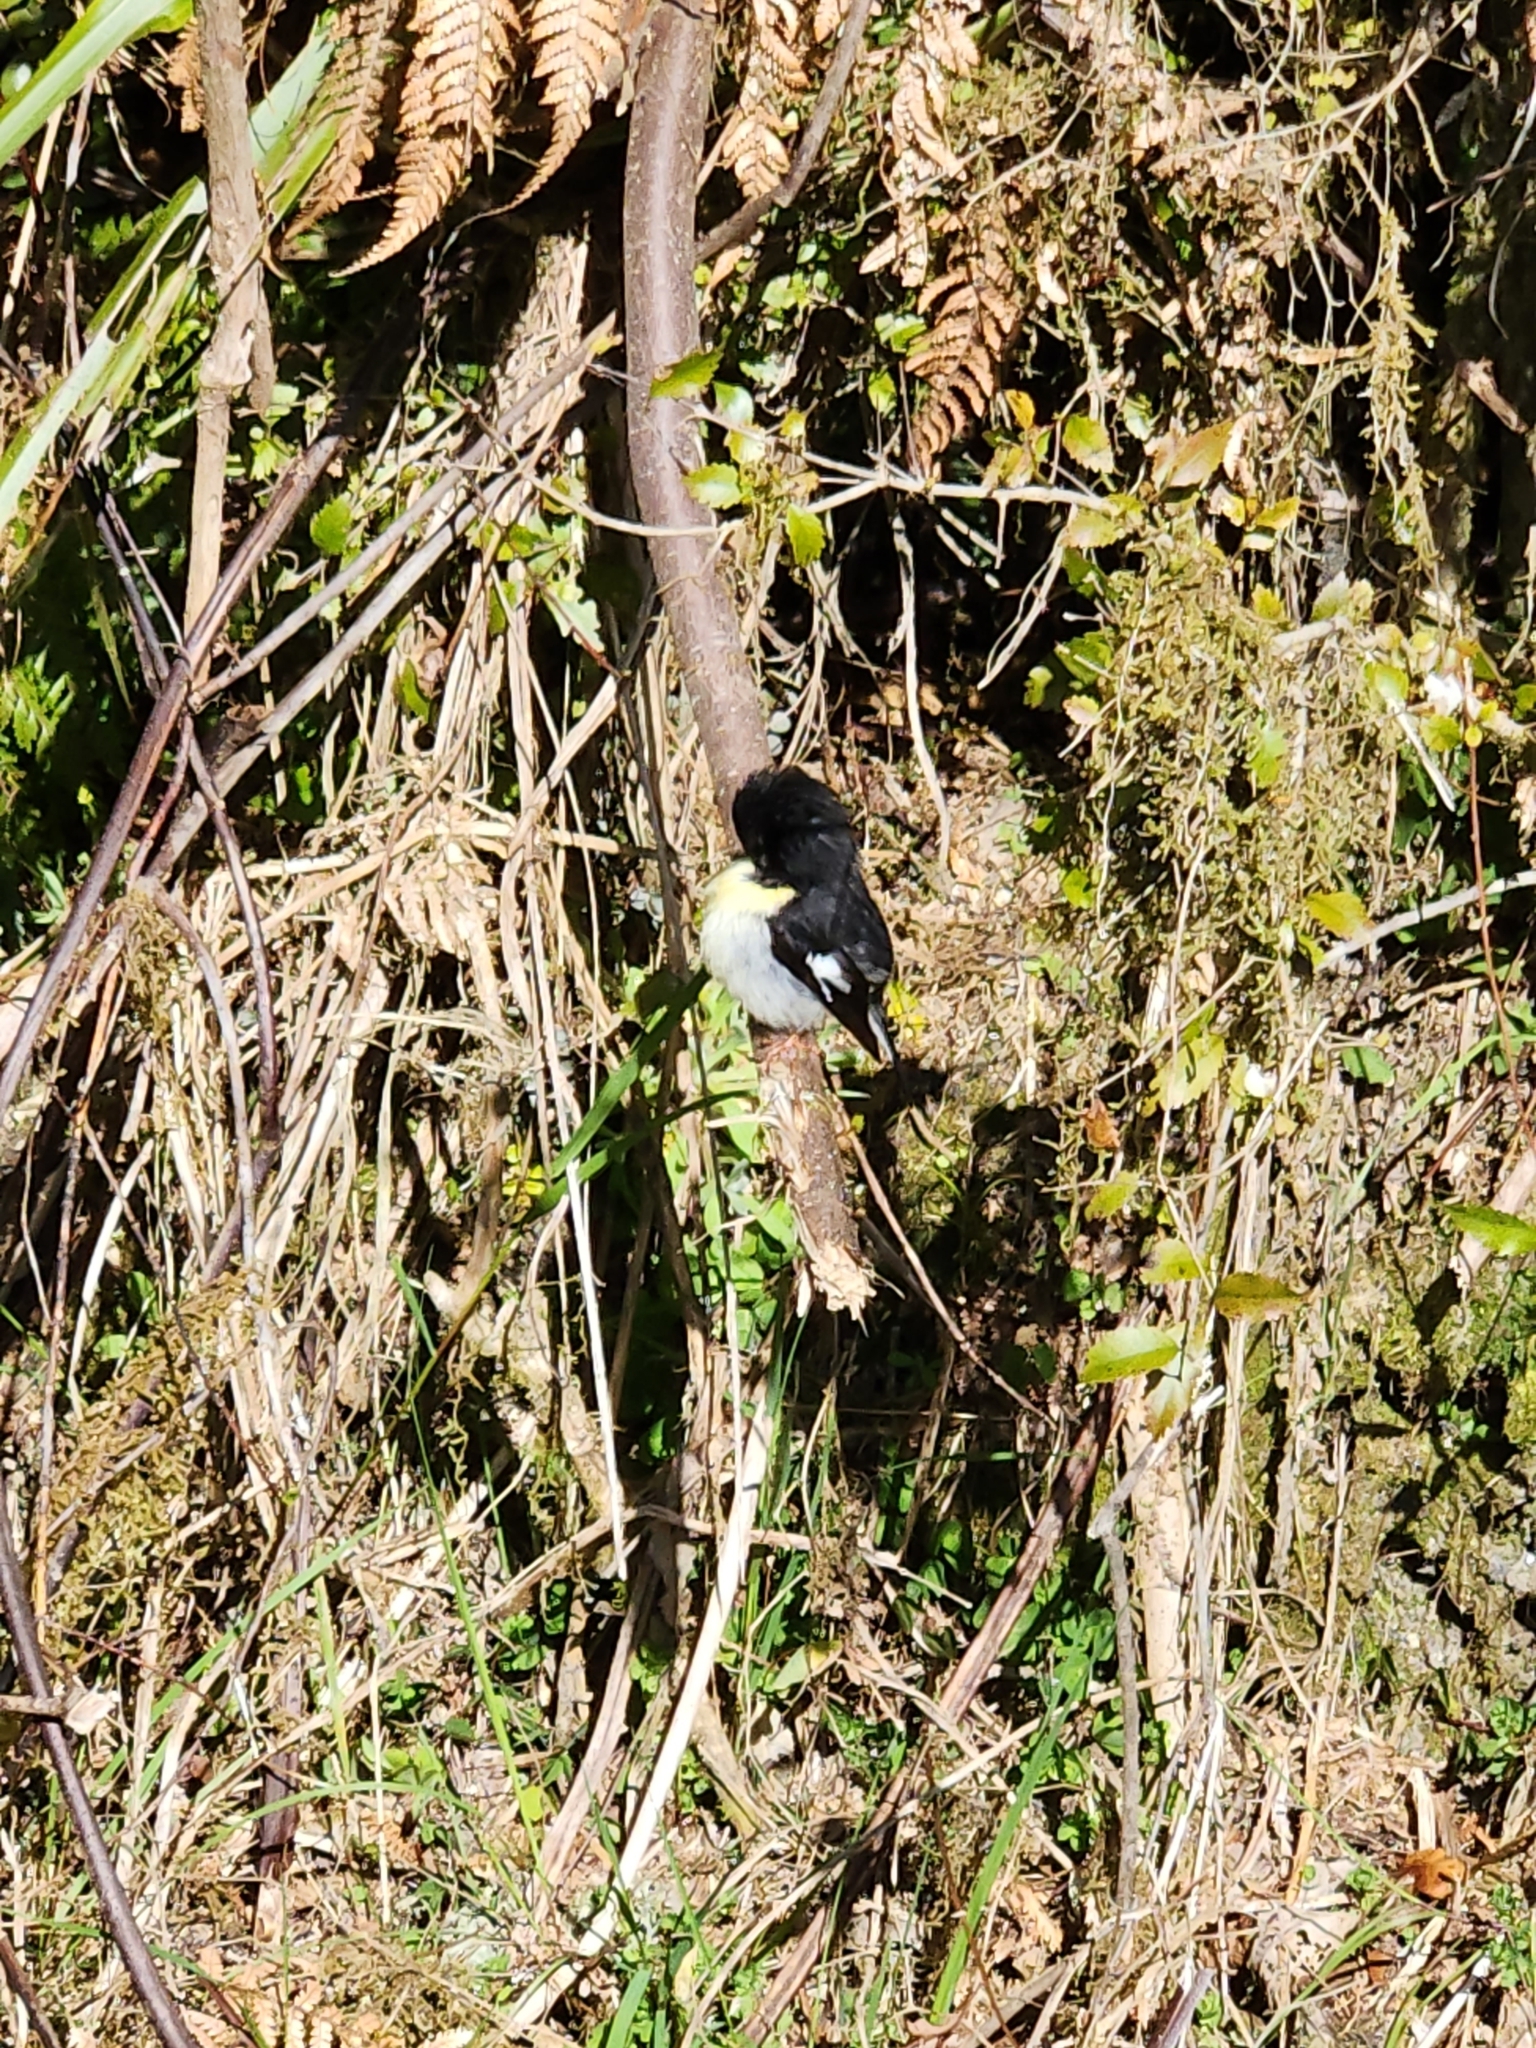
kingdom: Animalia
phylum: Chordata
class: Aves
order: Passeriformes
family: Petroicidae
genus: Petroica
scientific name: Petroica macrocephala
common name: Tomtit
